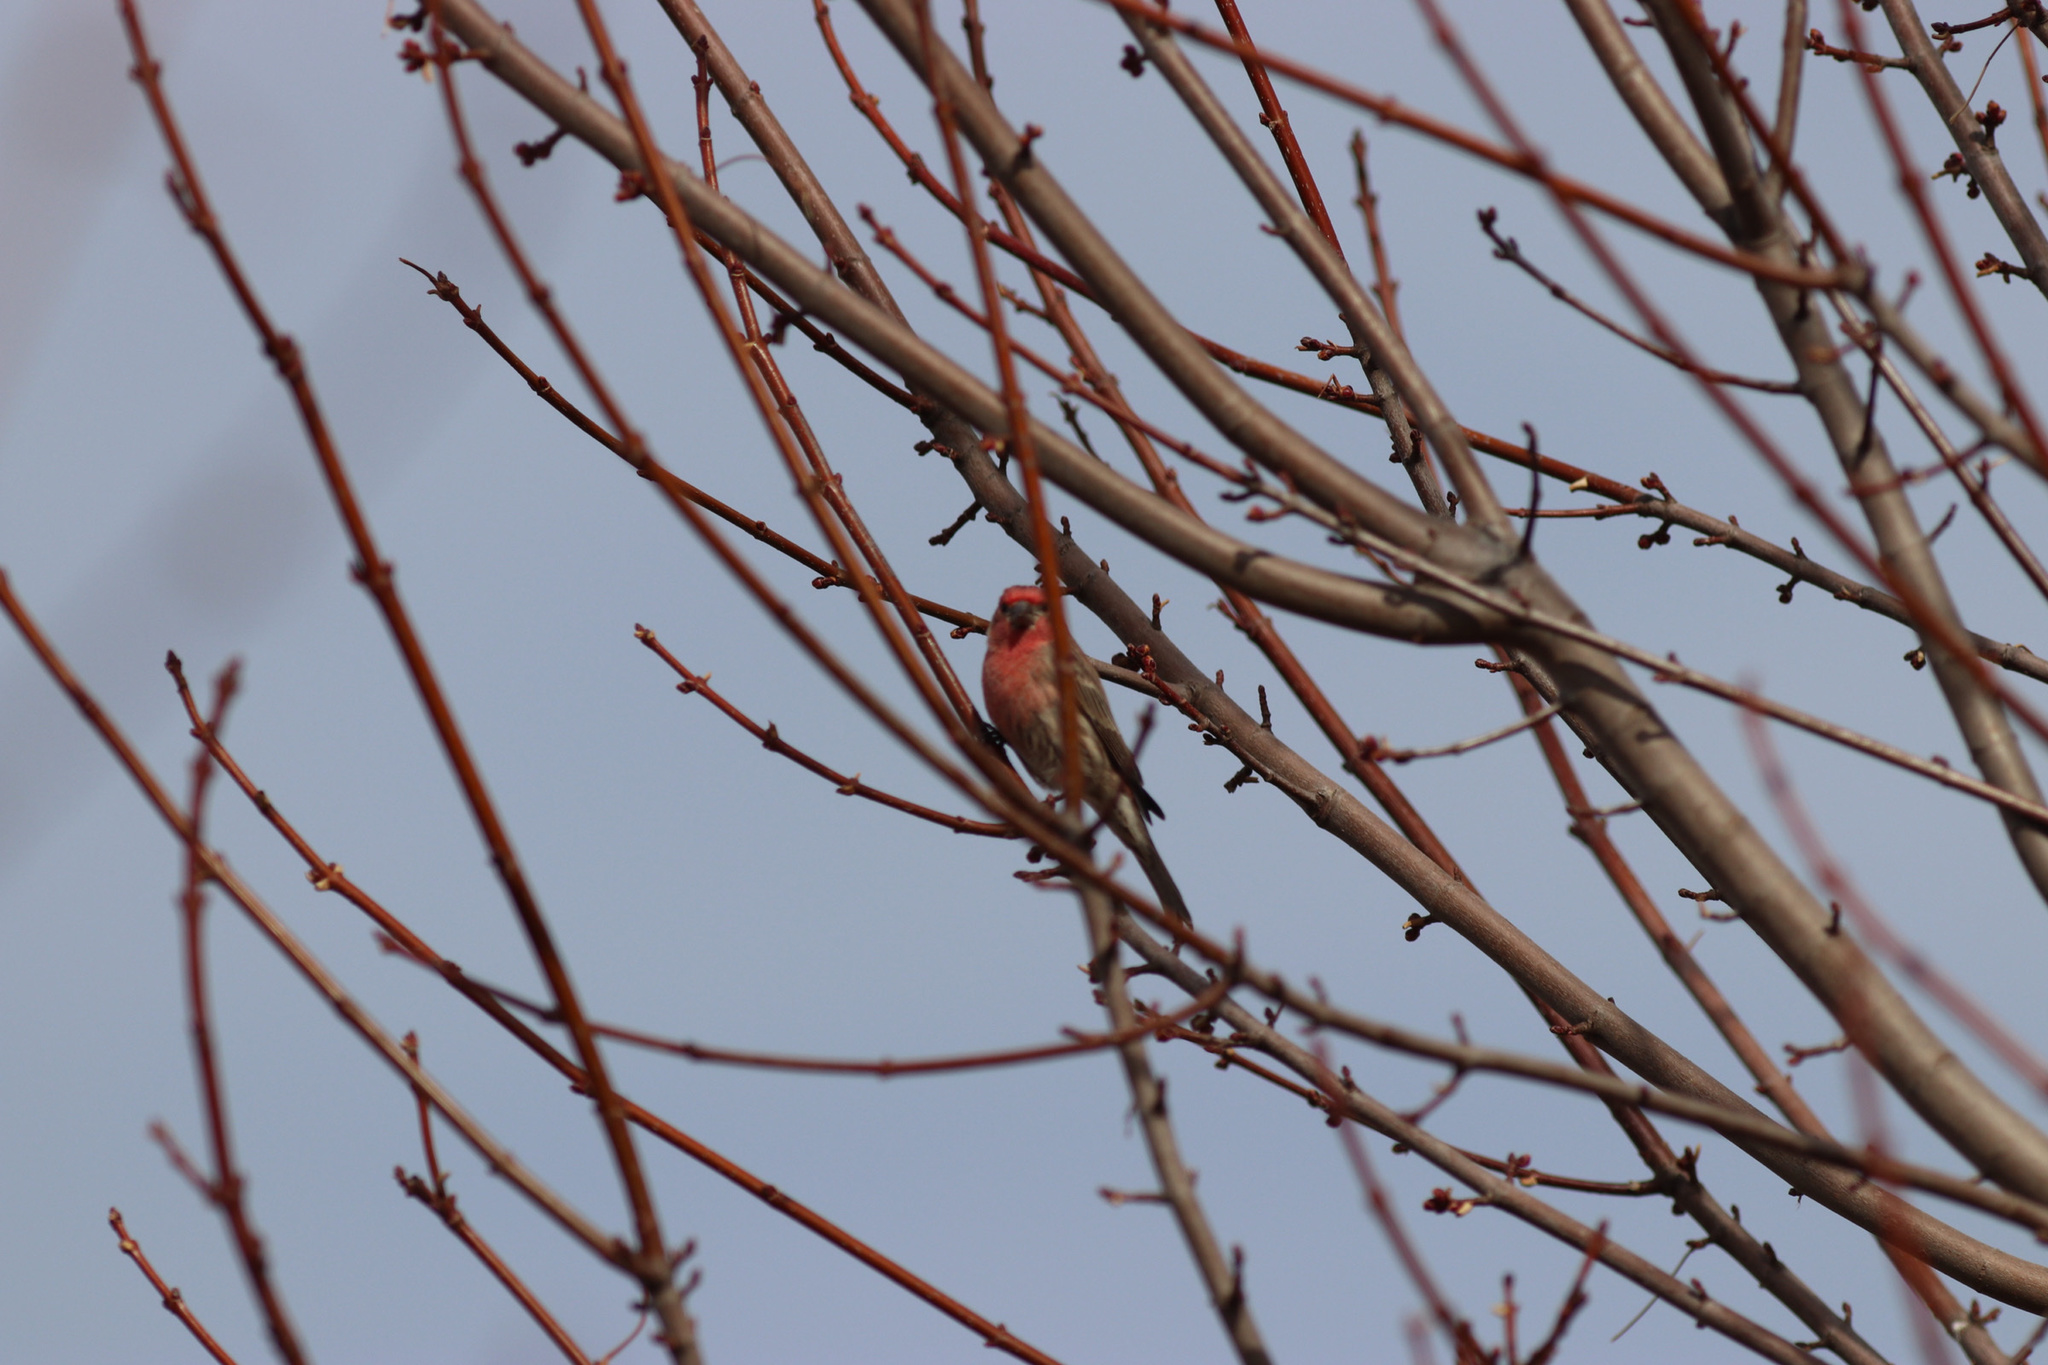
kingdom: Animalia
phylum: Chordata
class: Aves
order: Passeriformes
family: Fringillidae
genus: Haemorhous
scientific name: Haemorhous mexicanus
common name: House finch
